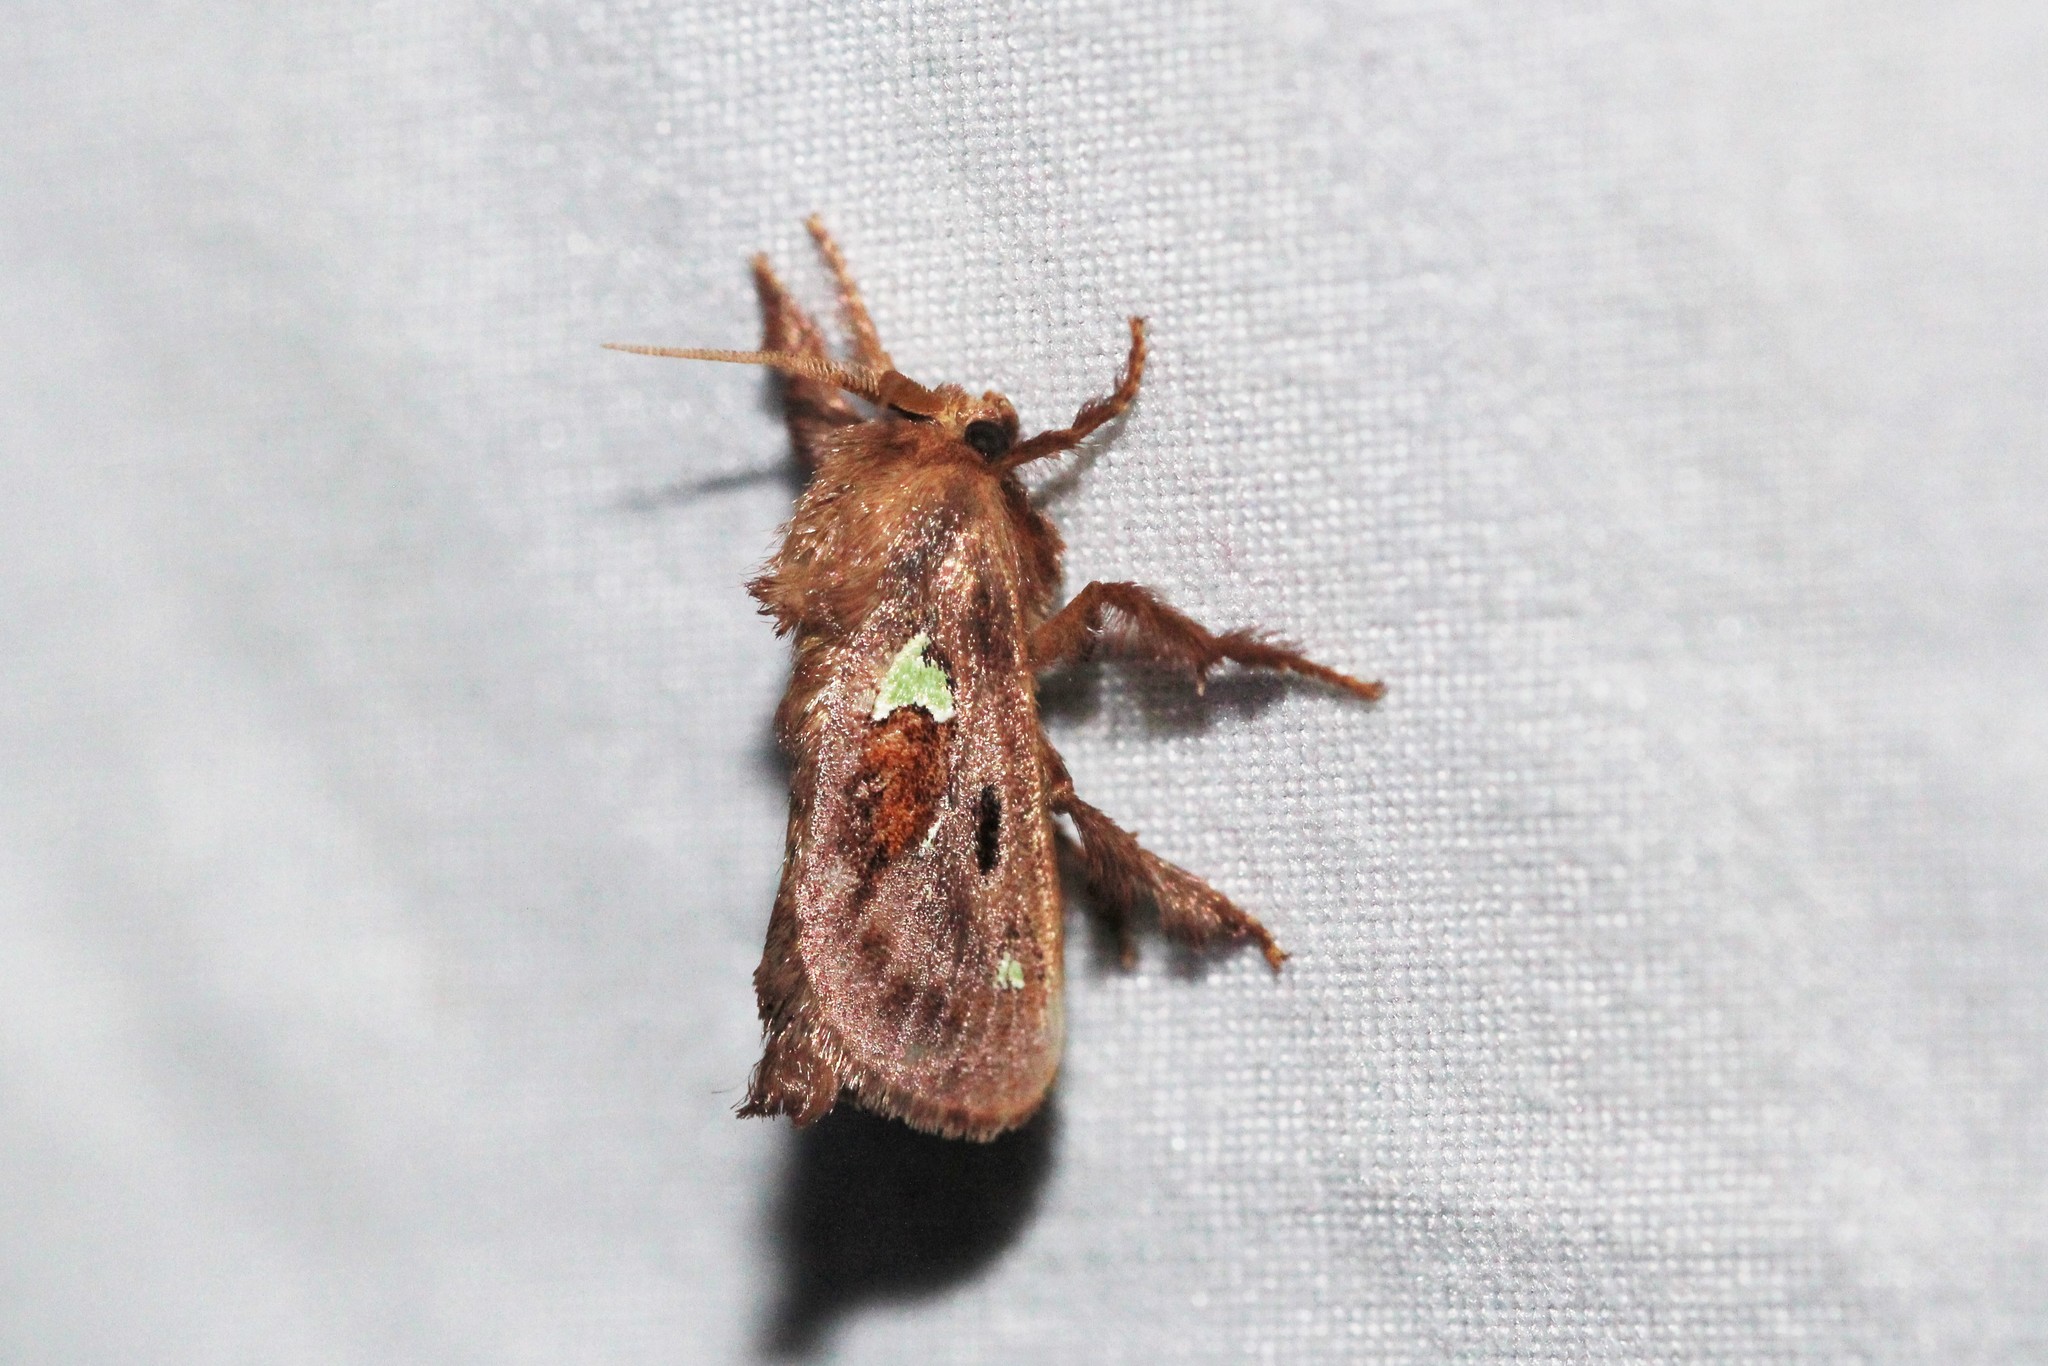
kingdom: Animalia
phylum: Arthropoda
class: Insecta
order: Lepidoptera
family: Limacodidae
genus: Euclea
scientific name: Euclea delphinii
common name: Spiny oak-slug moth
